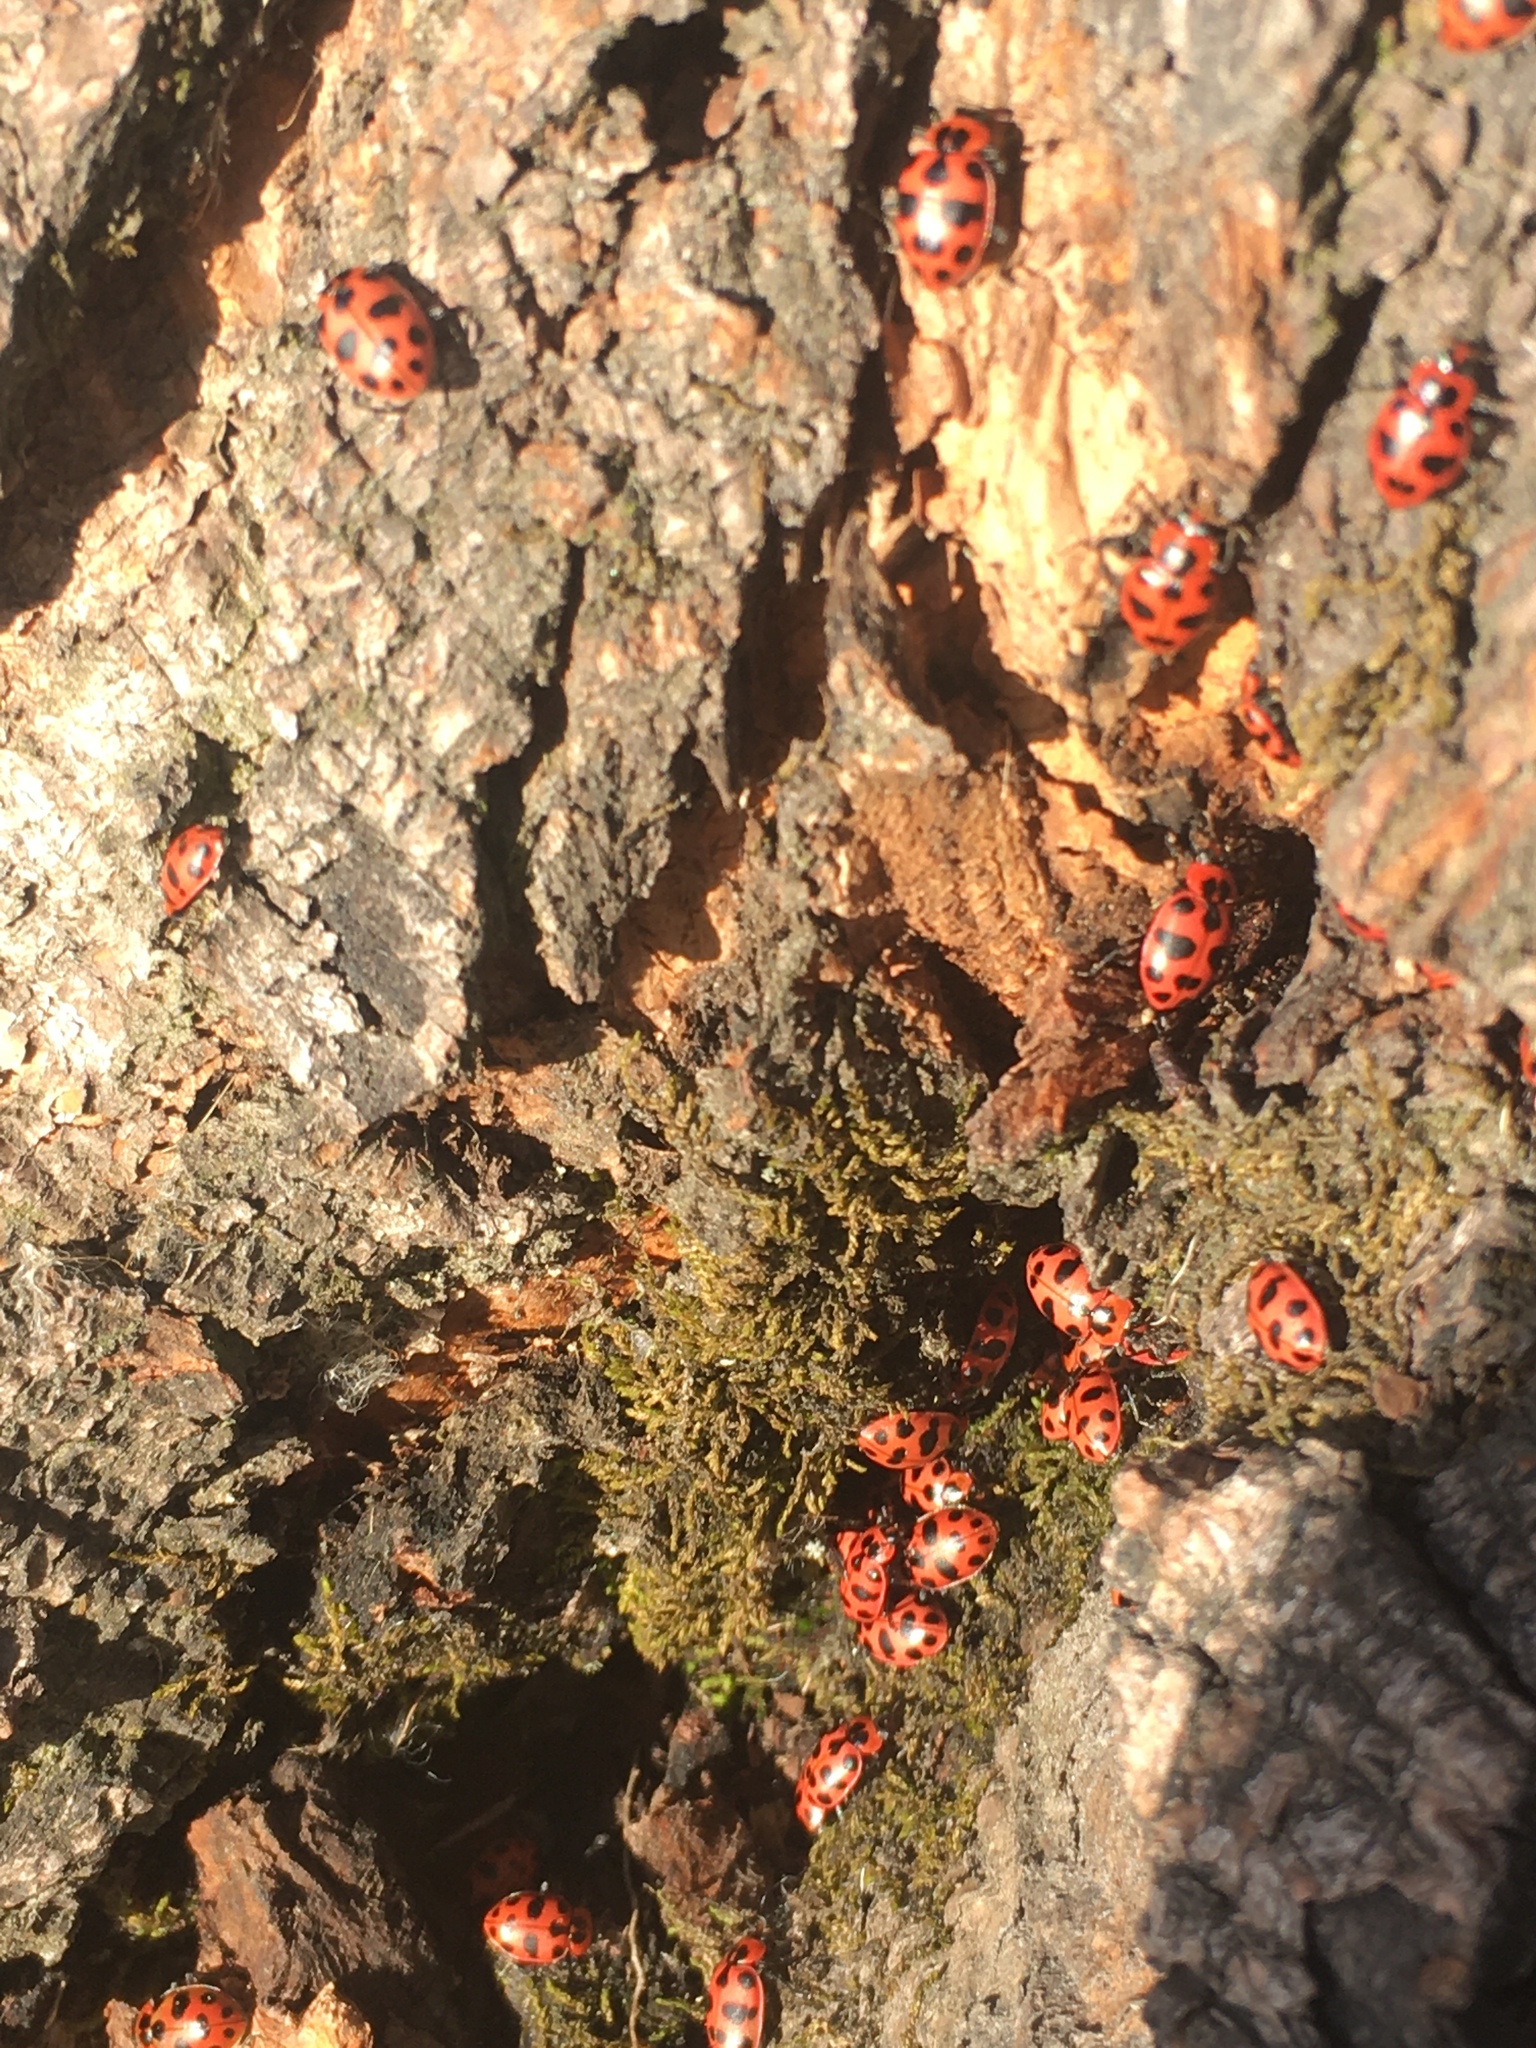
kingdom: Animalia
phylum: Arthropoda
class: Insecta
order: Coleoptera
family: Coccinellidae
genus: Coleomegilla
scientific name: Coleomegilla maculata
